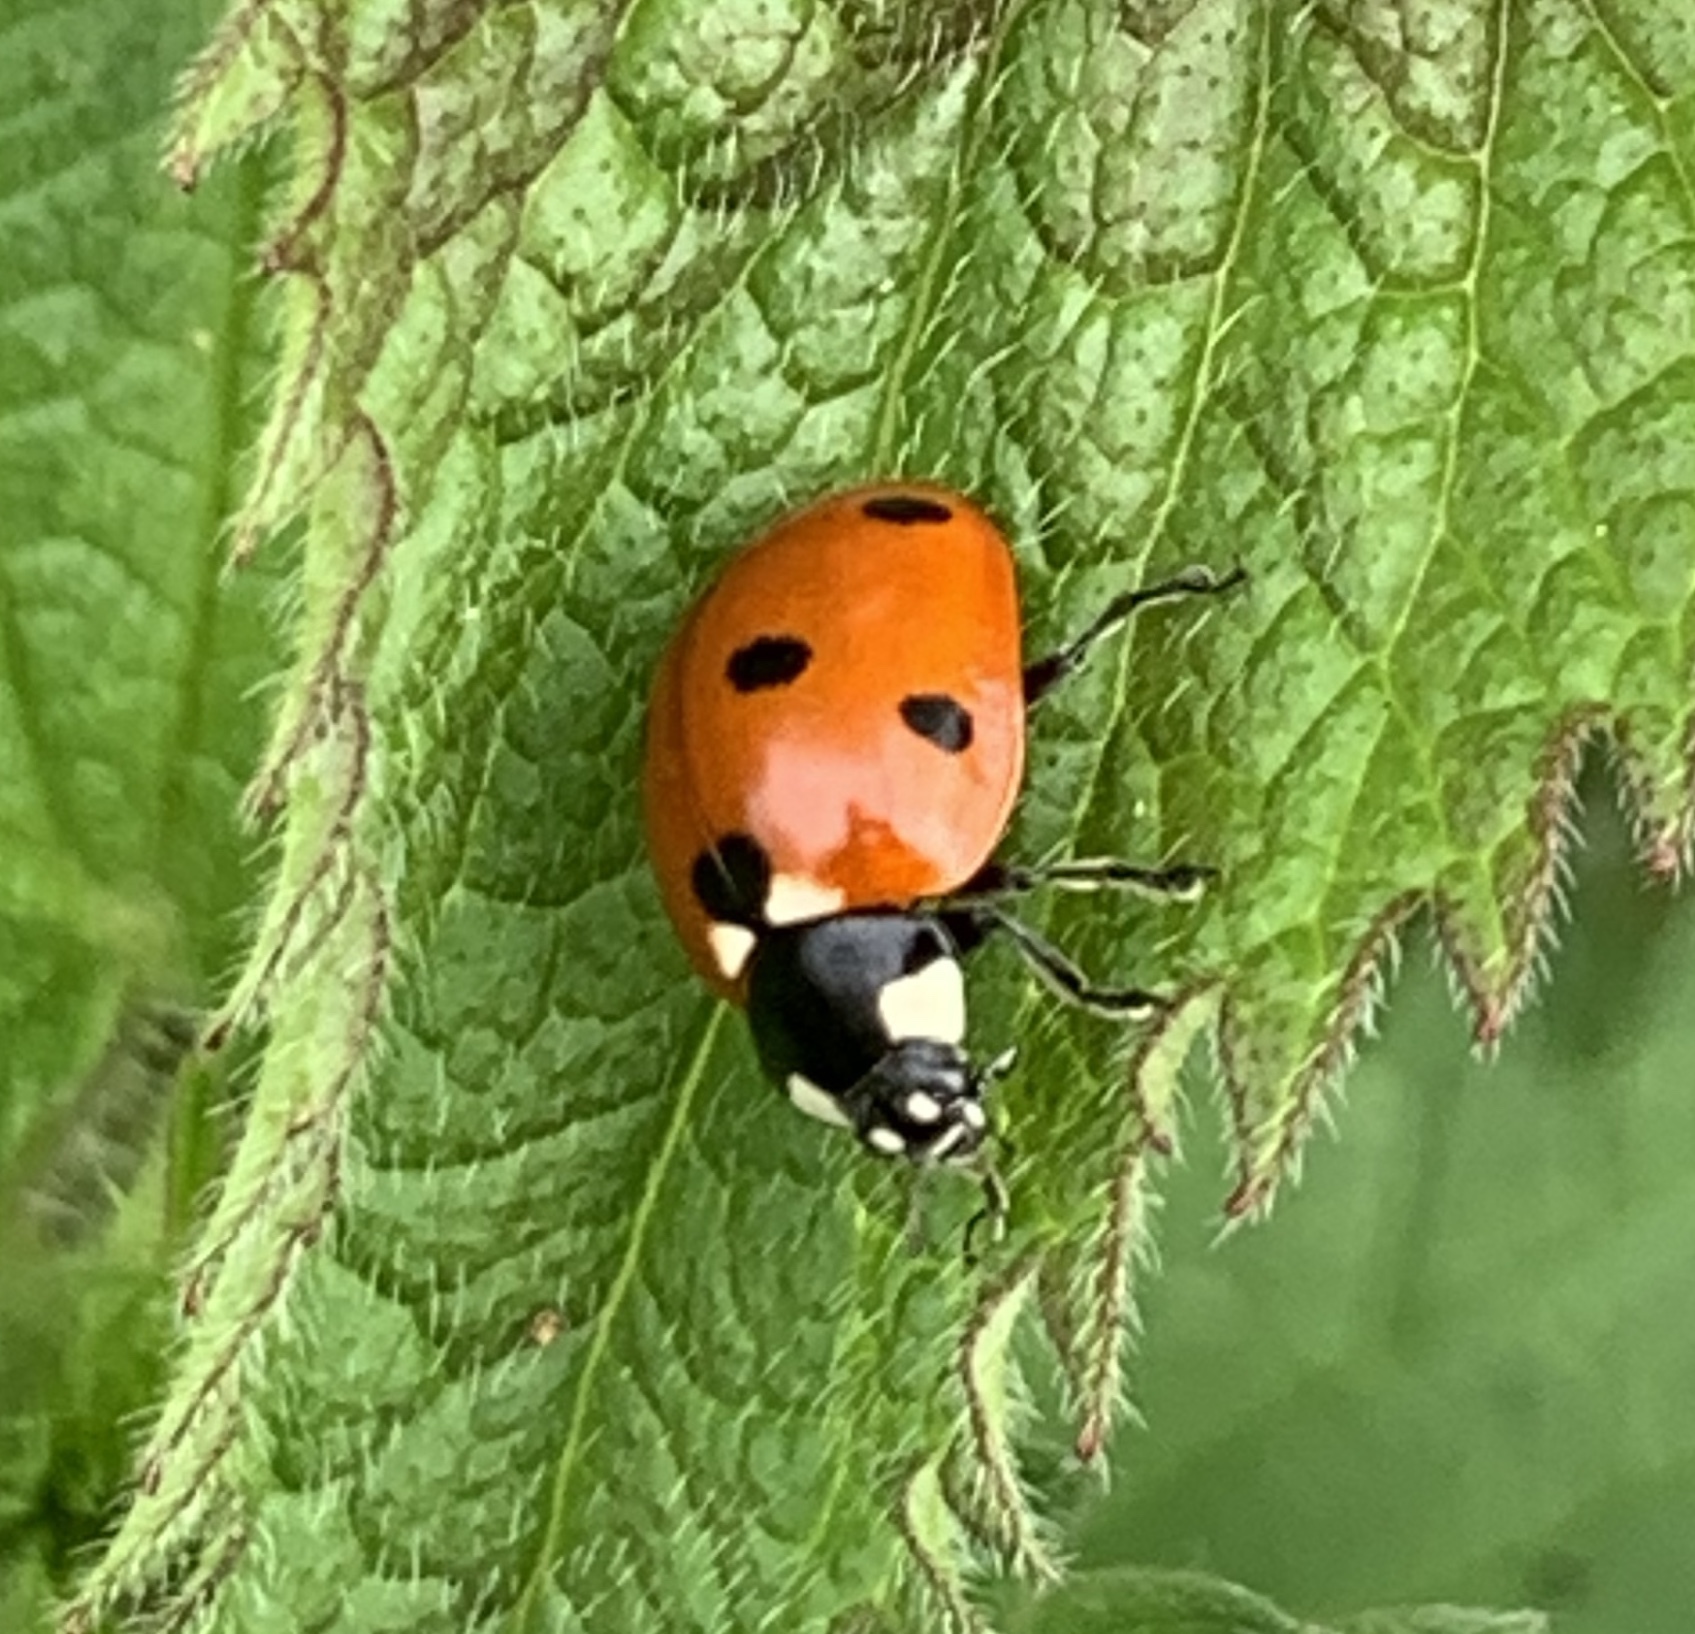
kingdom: Animalia
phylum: Arthropoda
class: Insecta
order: Coleoptera
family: Coccinellidae
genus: Coccinella
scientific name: Coccinella septempunctata
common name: Sevenspotted lady beetle
